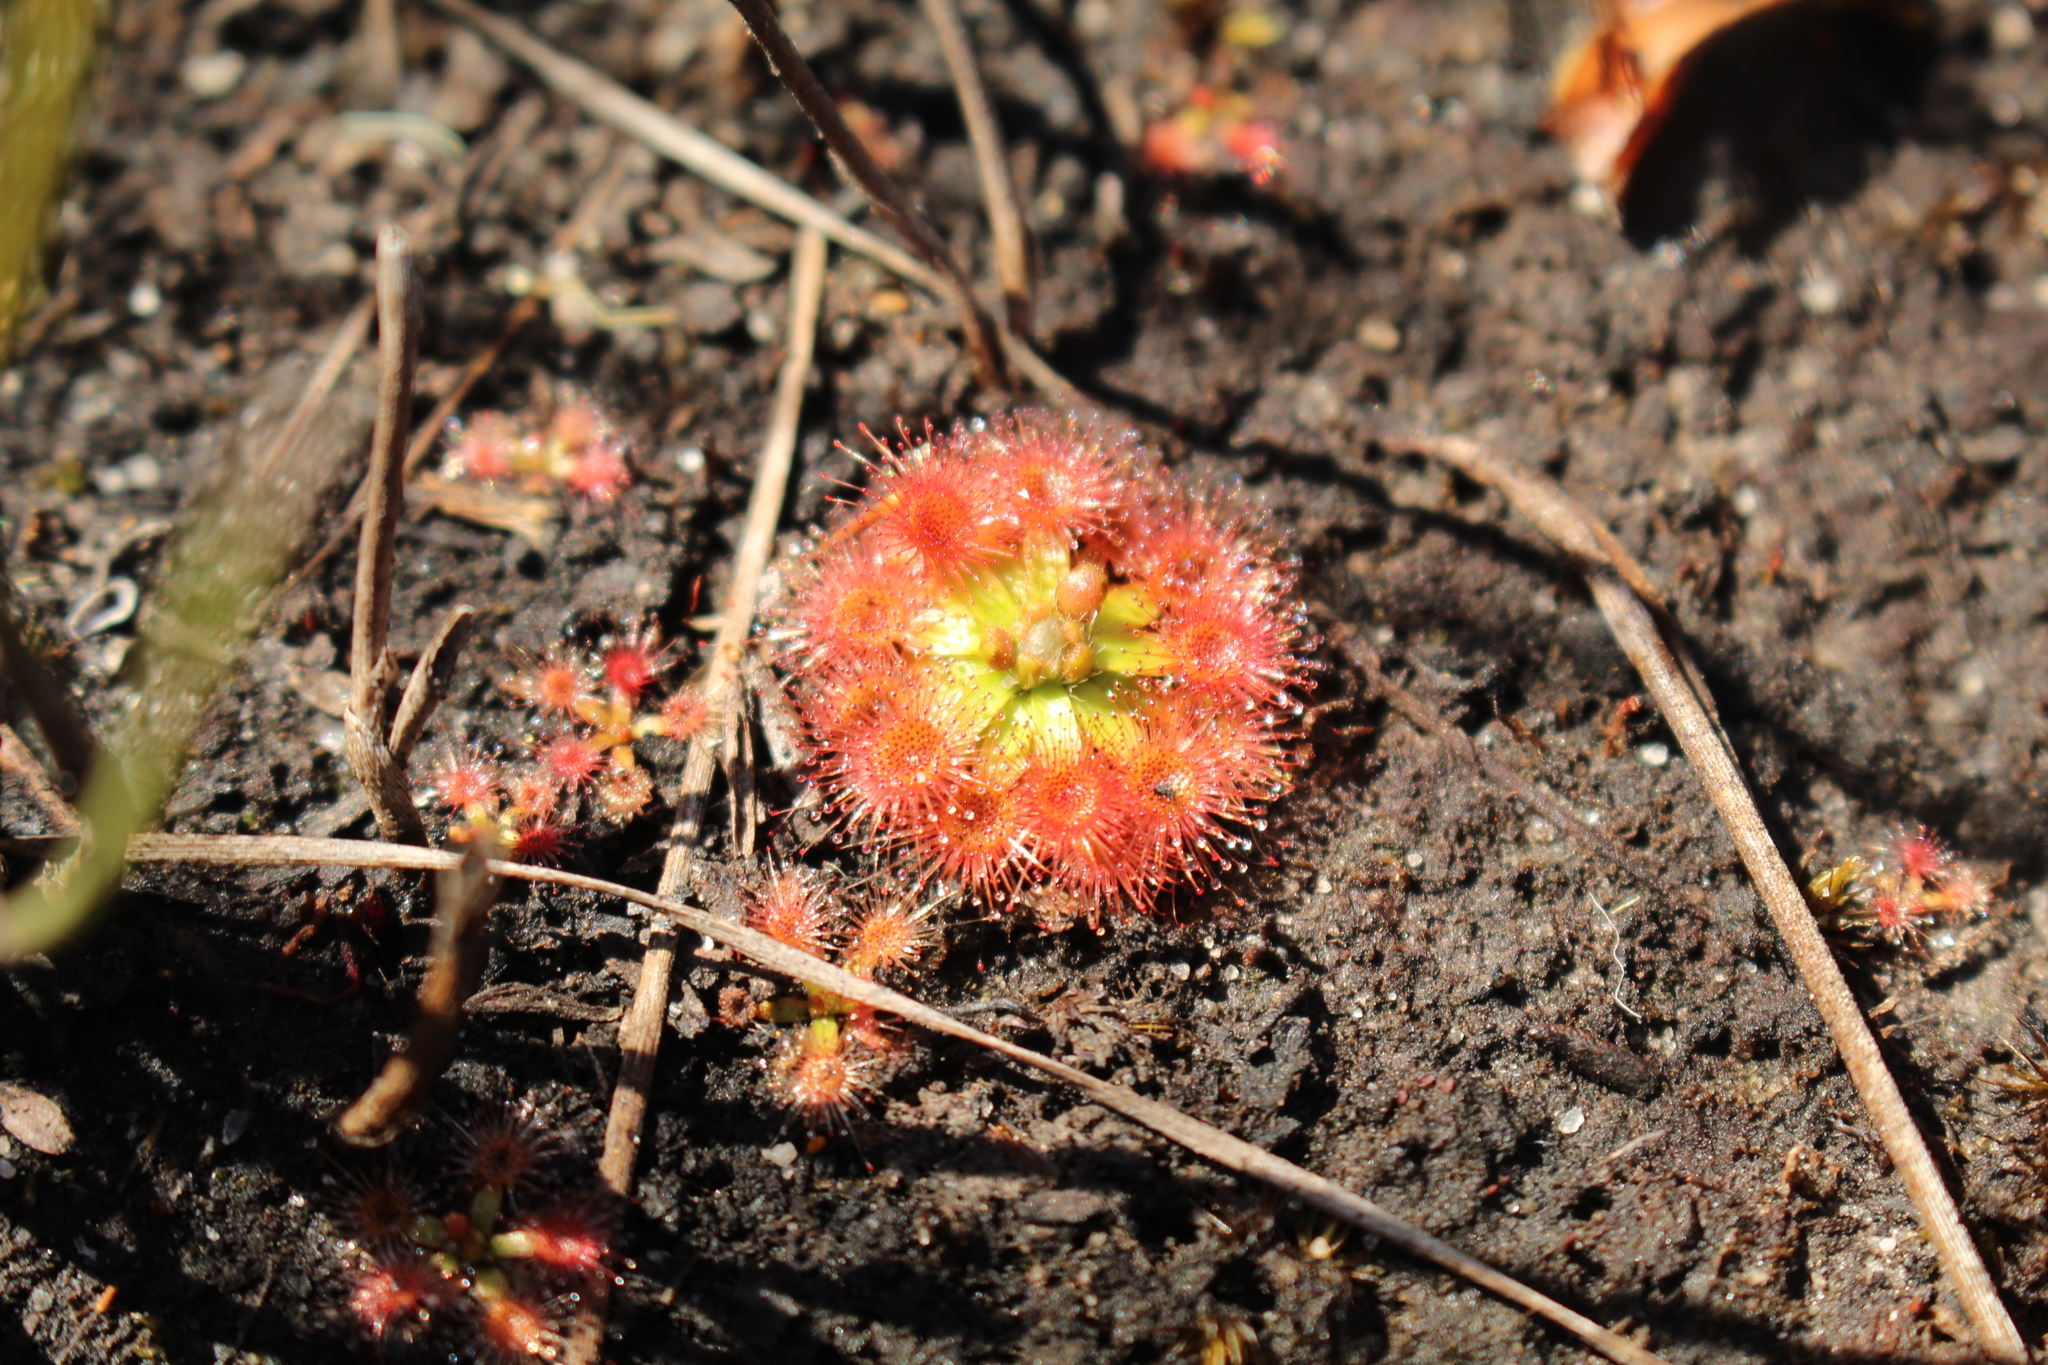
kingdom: Plantae
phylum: Tracheophyta
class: Magnoliopsida
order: Caryophyllales
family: Droseraceae
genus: Drosera
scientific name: Drosera pulchella
